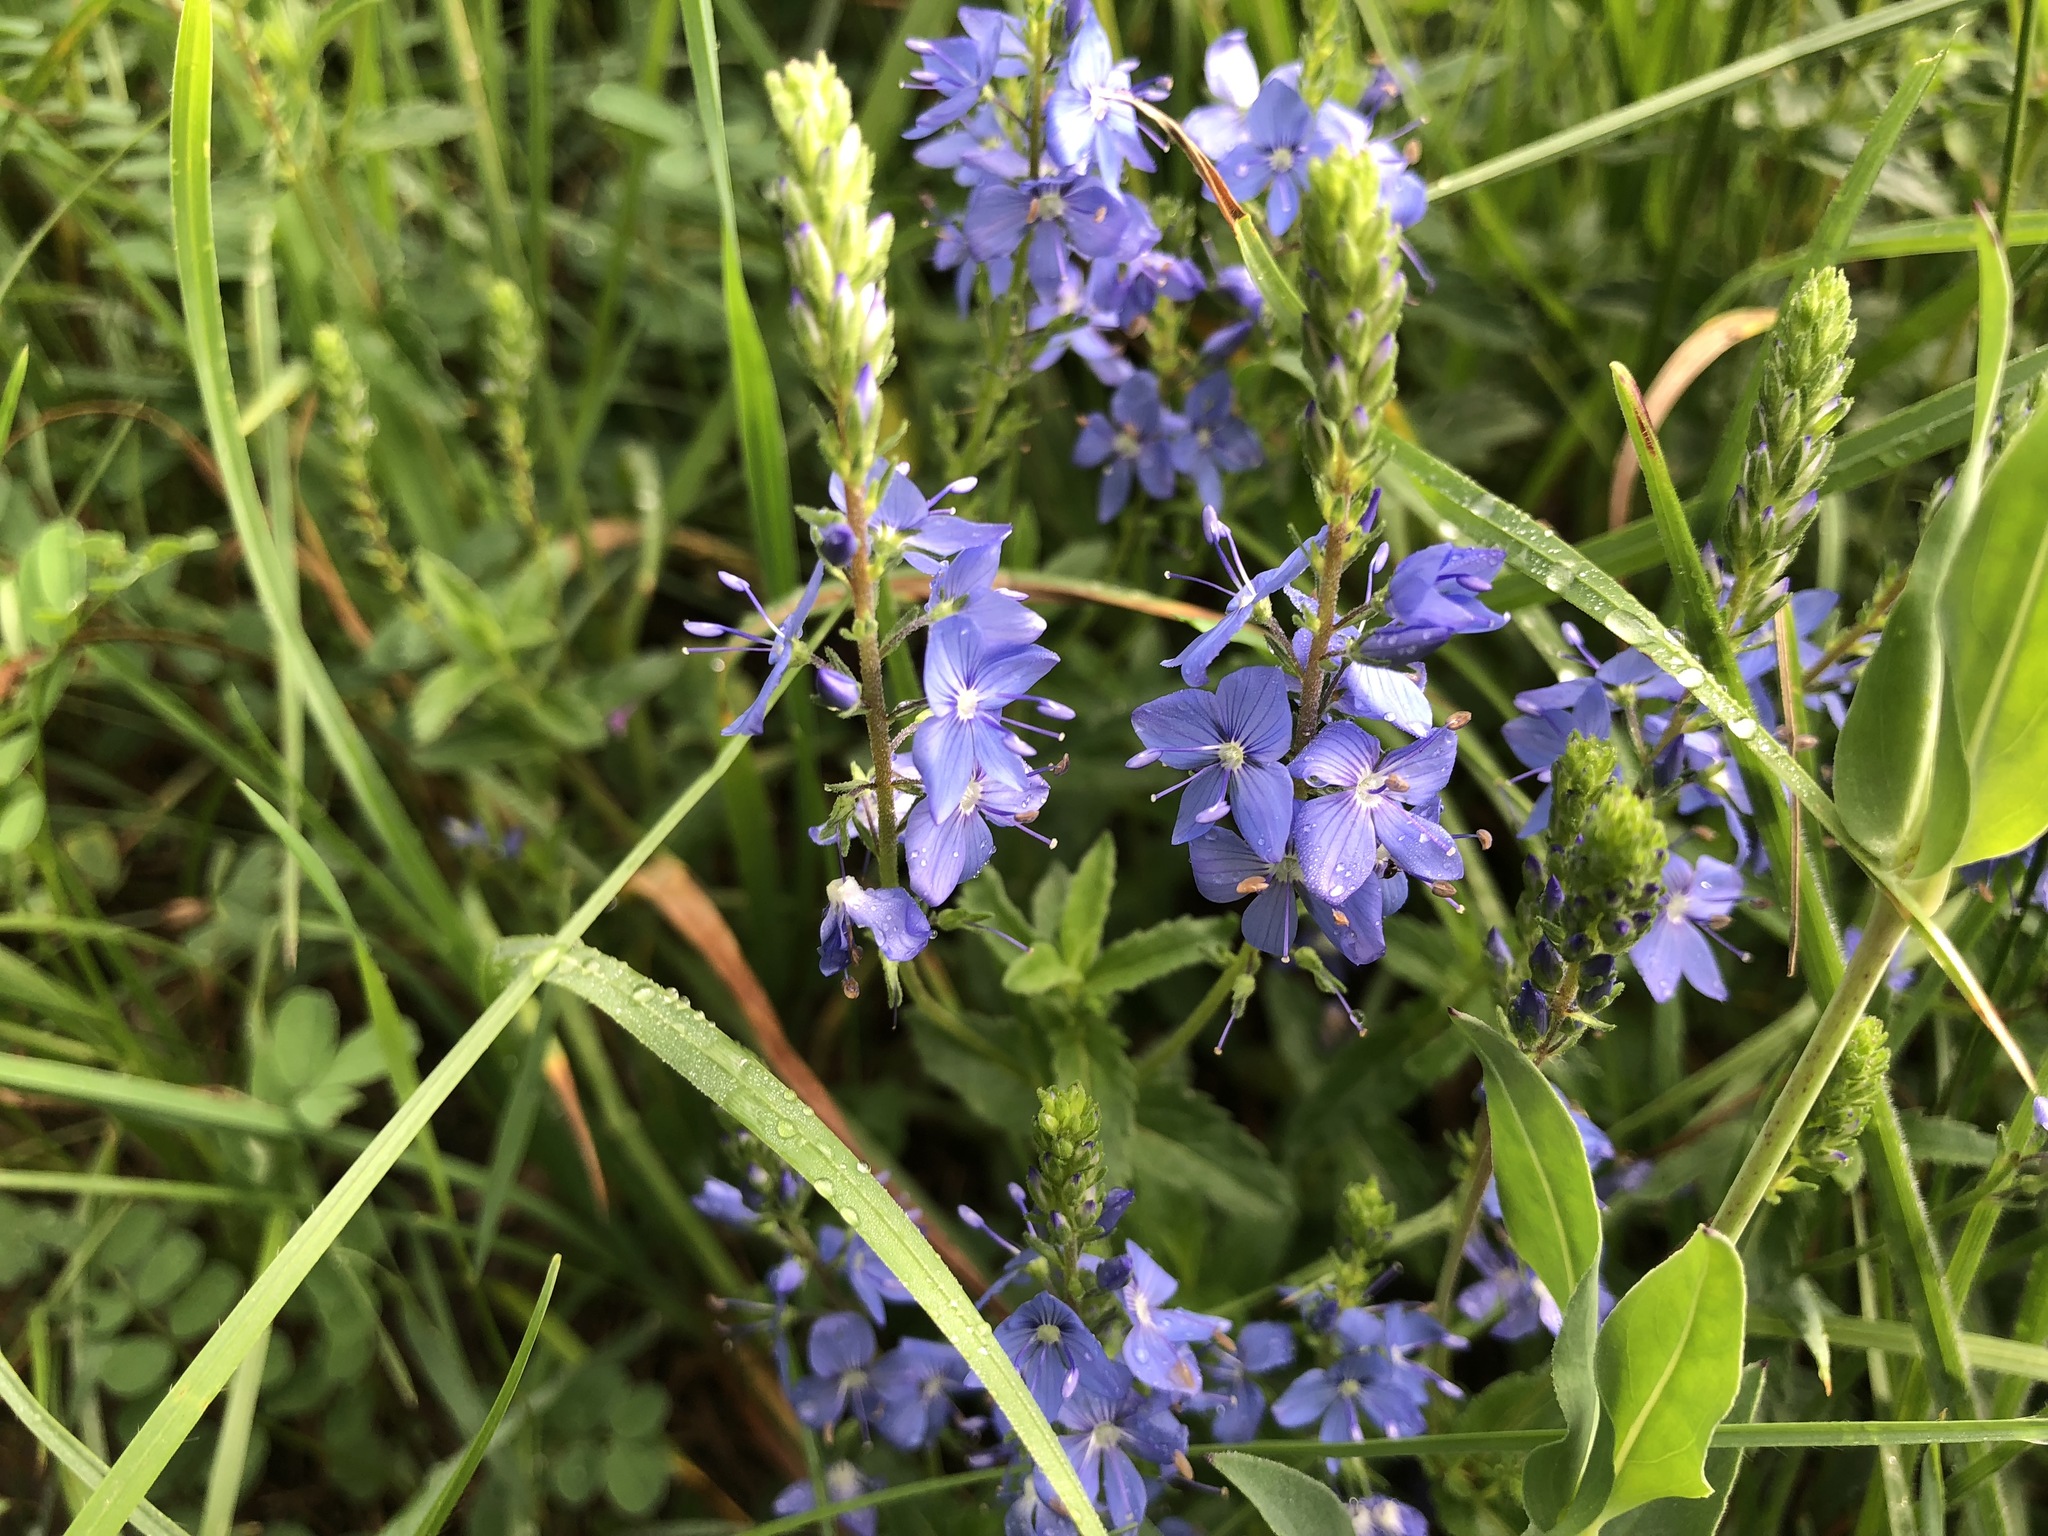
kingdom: Plantae
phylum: Tracheophyta
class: Magnoliopsida
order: Lamiales
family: Plantaginaceae
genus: Veronica
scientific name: Veronica teucrium
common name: Large speedwell
